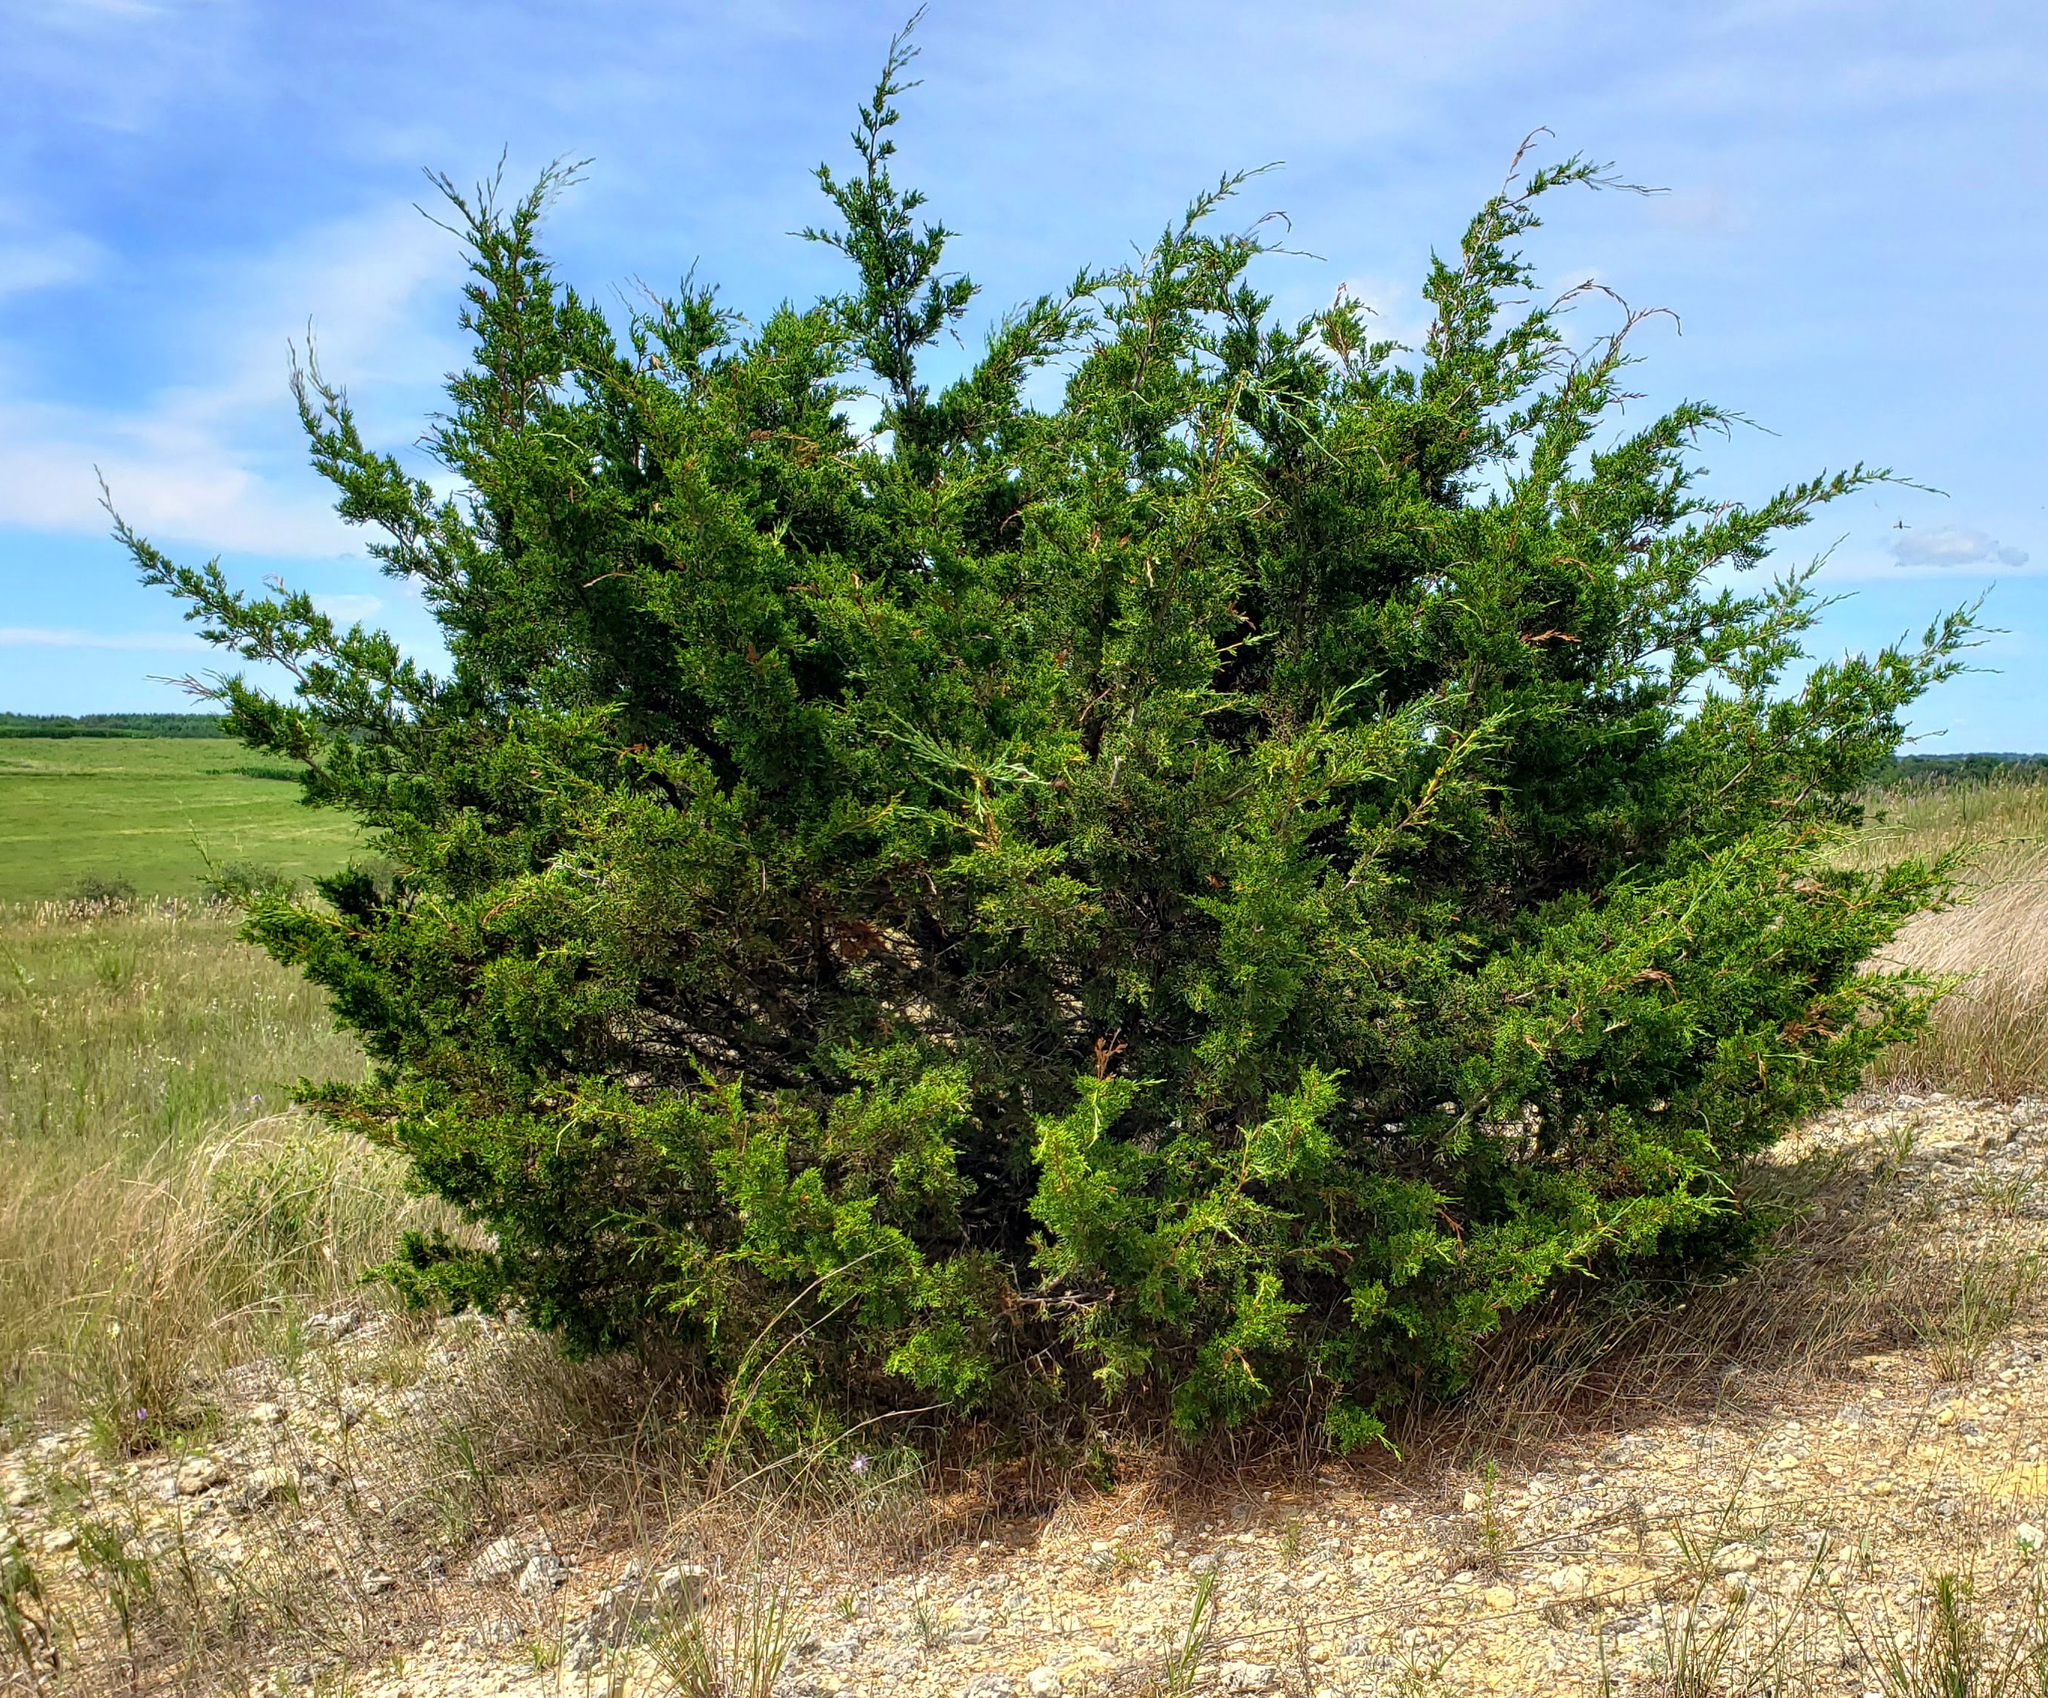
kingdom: Plantae
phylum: Tracheophyta
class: Pinopsida
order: Pinales
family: Cupressaceae
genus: Juniperus
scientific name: Juniperus virginiana
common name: Red juniper
